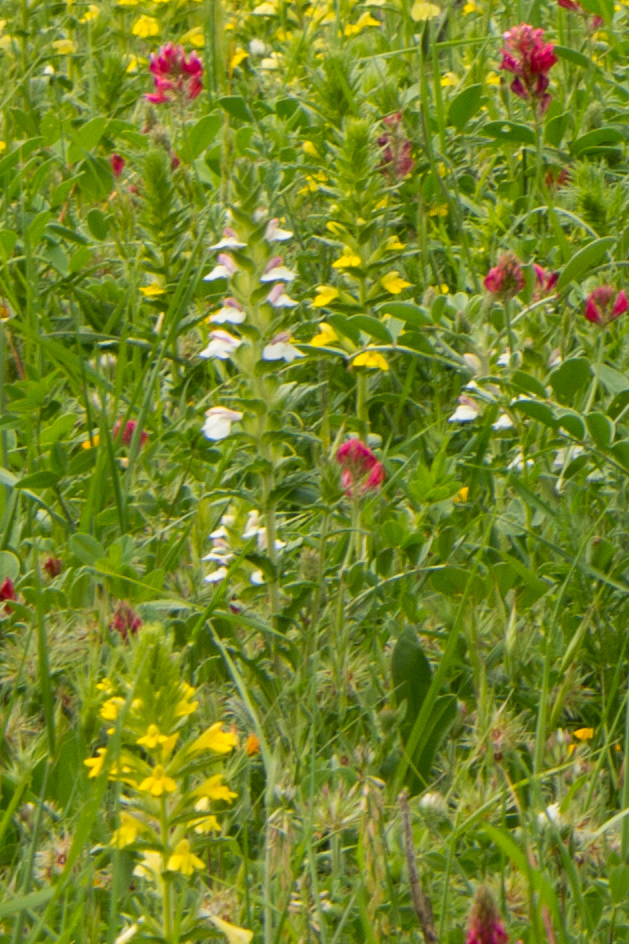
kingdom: Plantae
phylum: Tracheophyta
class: Magnoliopsida
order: Lamiales
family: Orobanchaceae
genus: Bellardia
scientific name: Bellardia trixago
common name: Mediterranean lineseed
